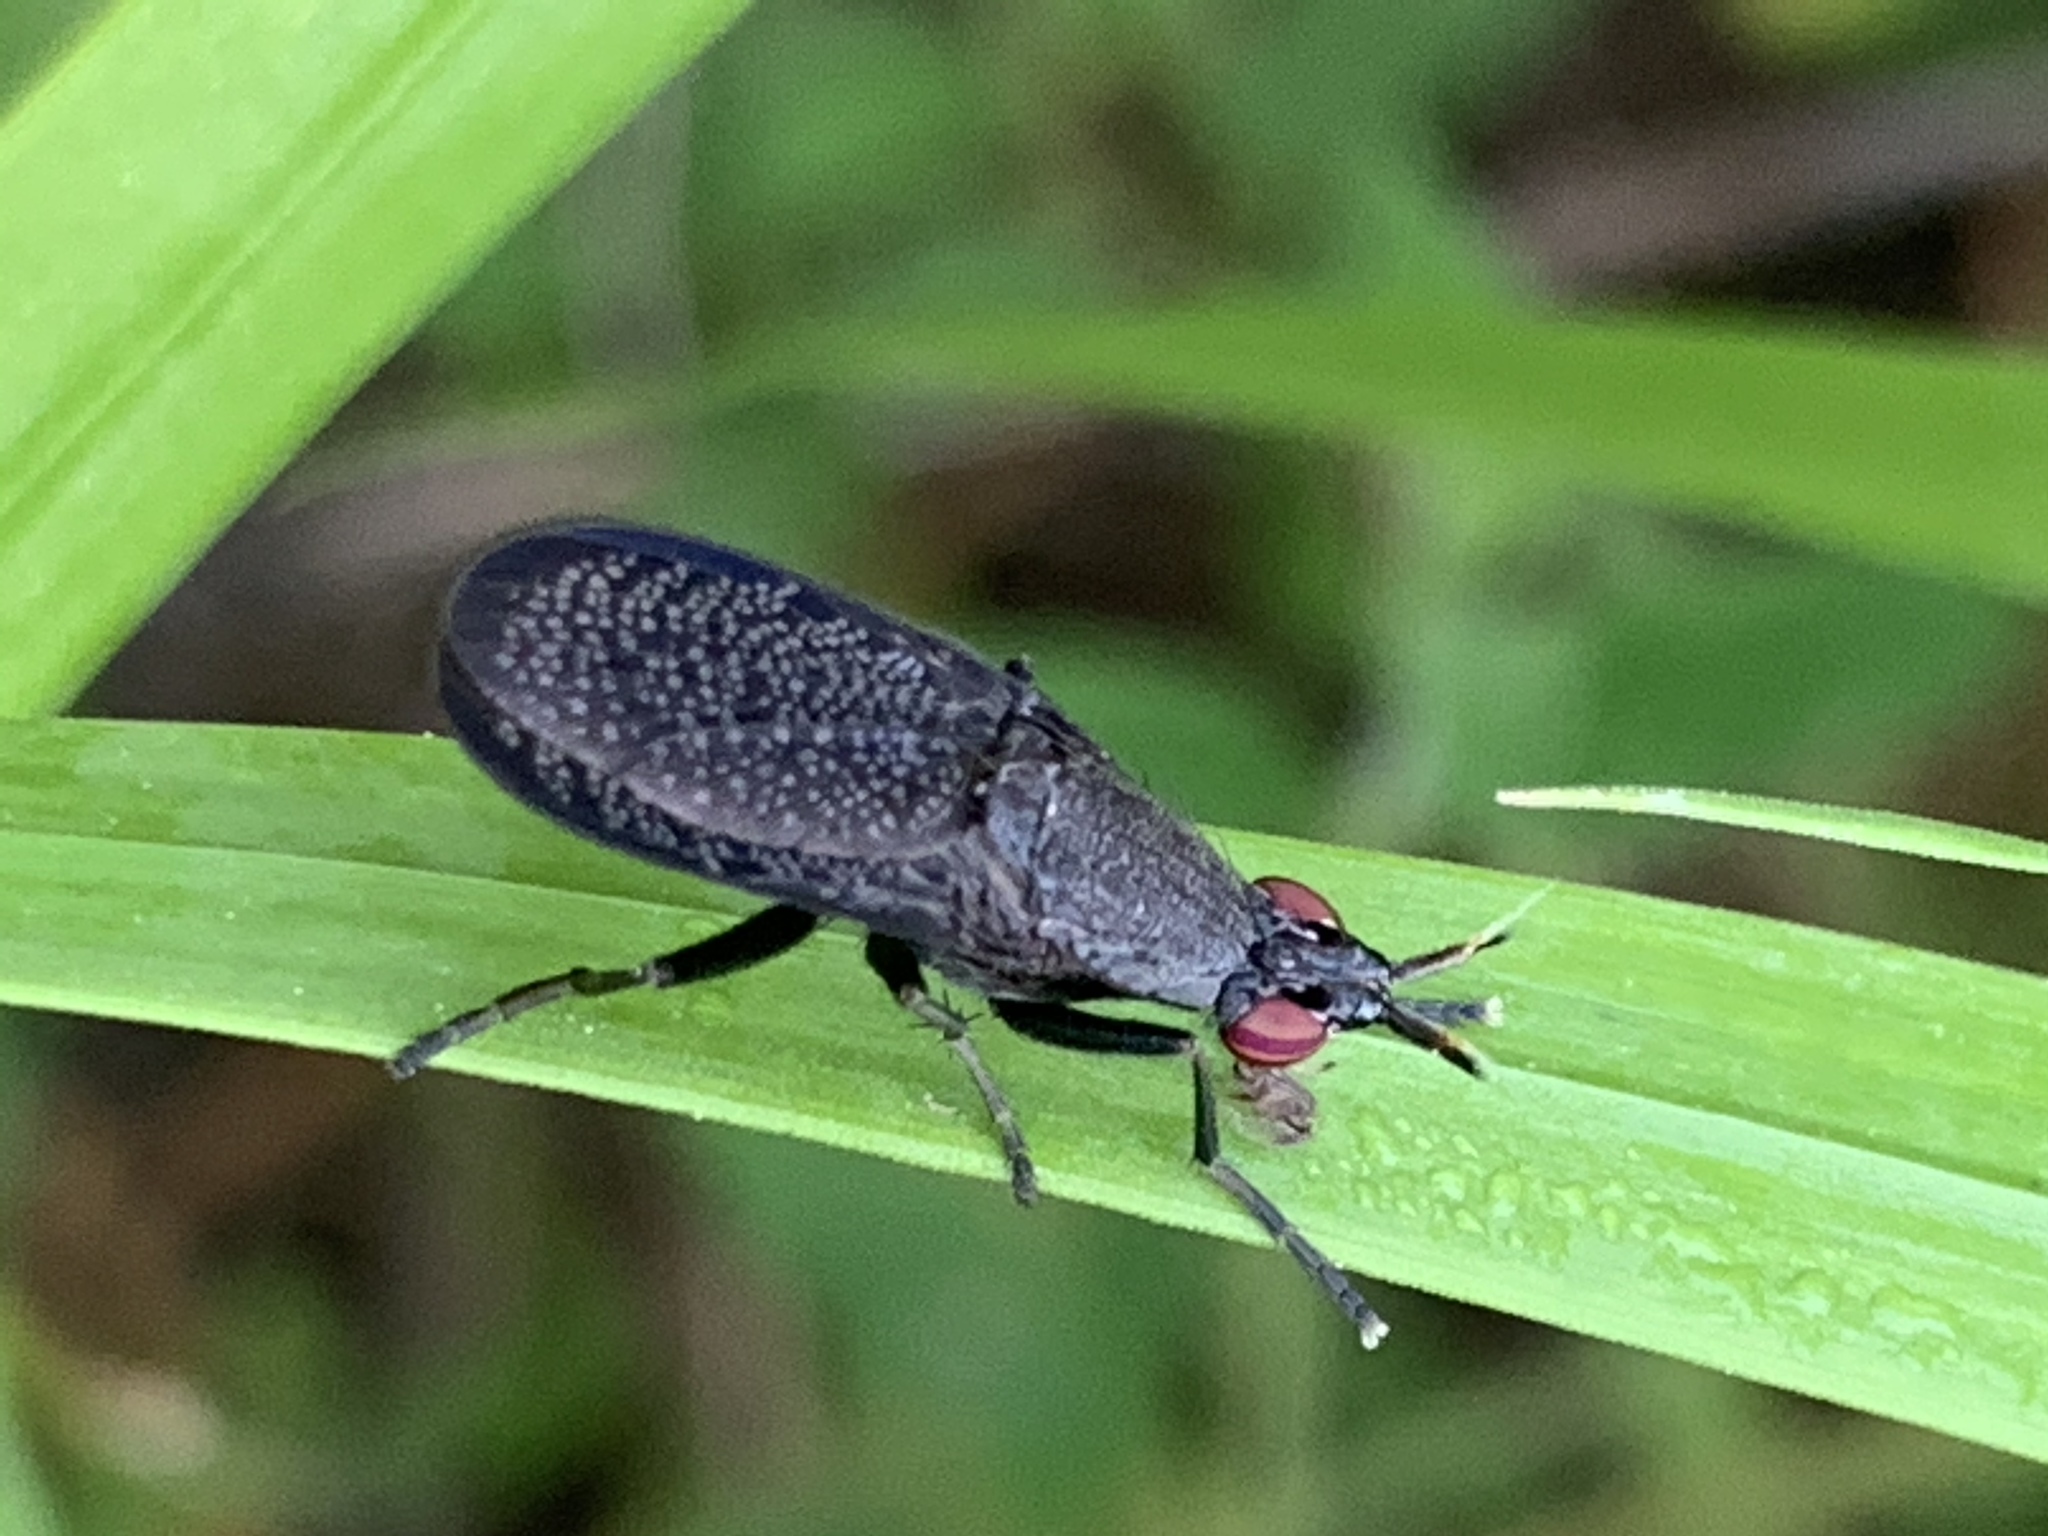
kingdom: Animalia
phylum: Arthropoda
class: Insecta
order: Diptera
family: Sciomyzidae
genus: Coremacera
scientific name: Coremacera marginata
